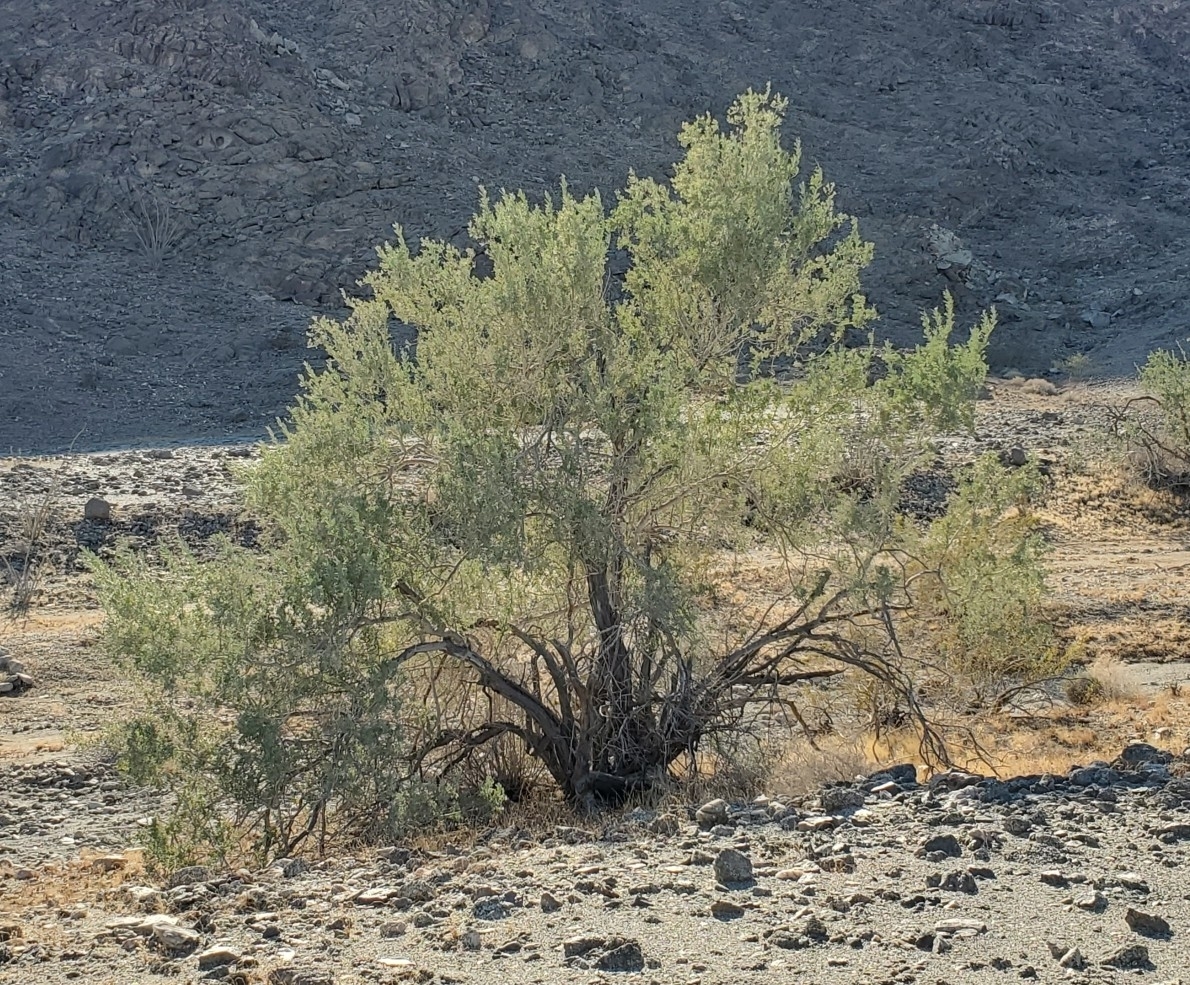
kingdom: Plantae
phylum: Tracheophyta
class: Magnoliopsida
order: Fabales
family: Fabaceae
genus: Olneya
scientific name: Olneya tesota
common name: Desert ironwood
